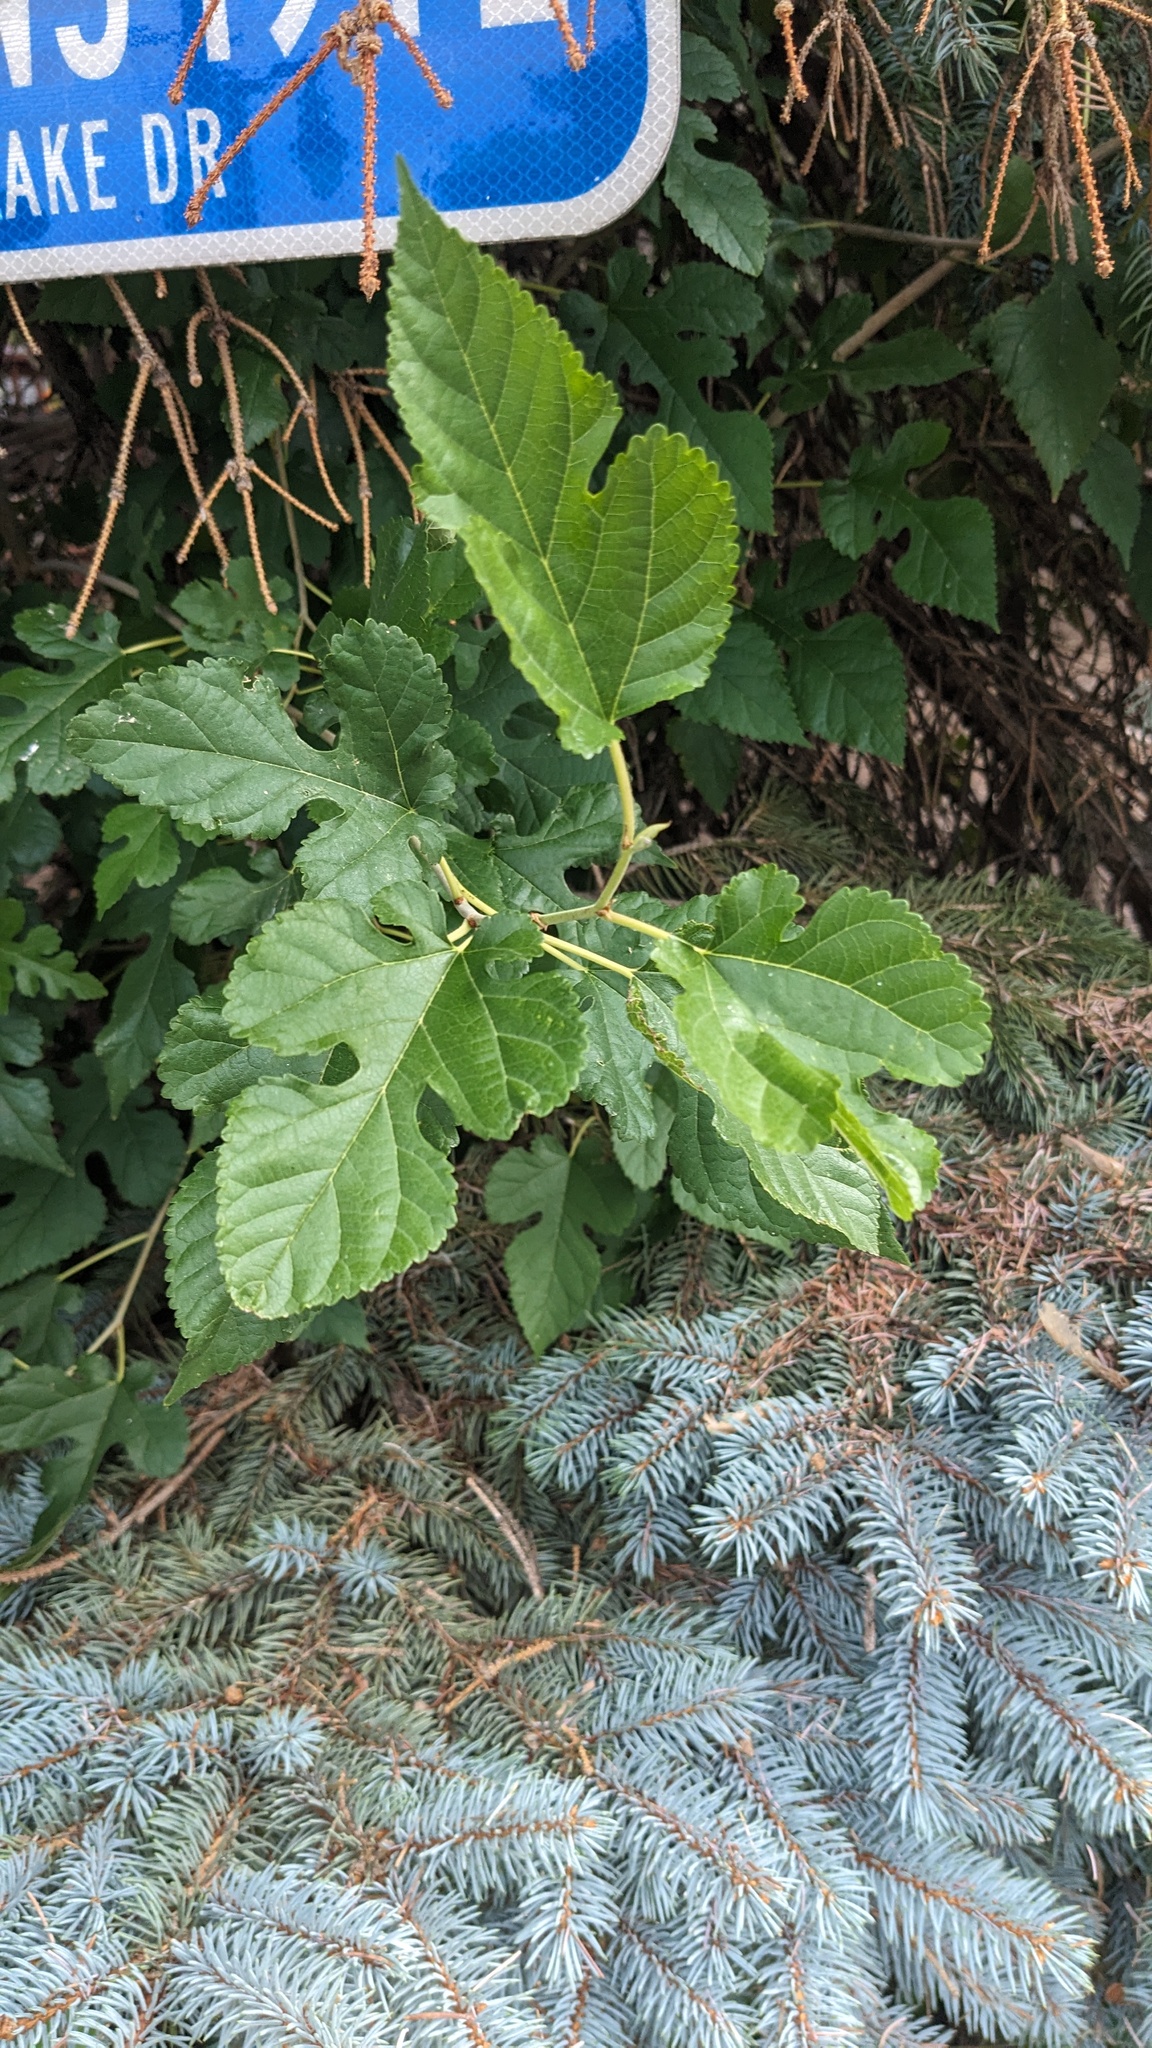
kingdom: Plantae
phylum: Tracheophyta
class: Magnoliopsida
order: Rosales
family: Moraceae
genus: Morus
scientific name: Morus alba
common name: White mulberry
